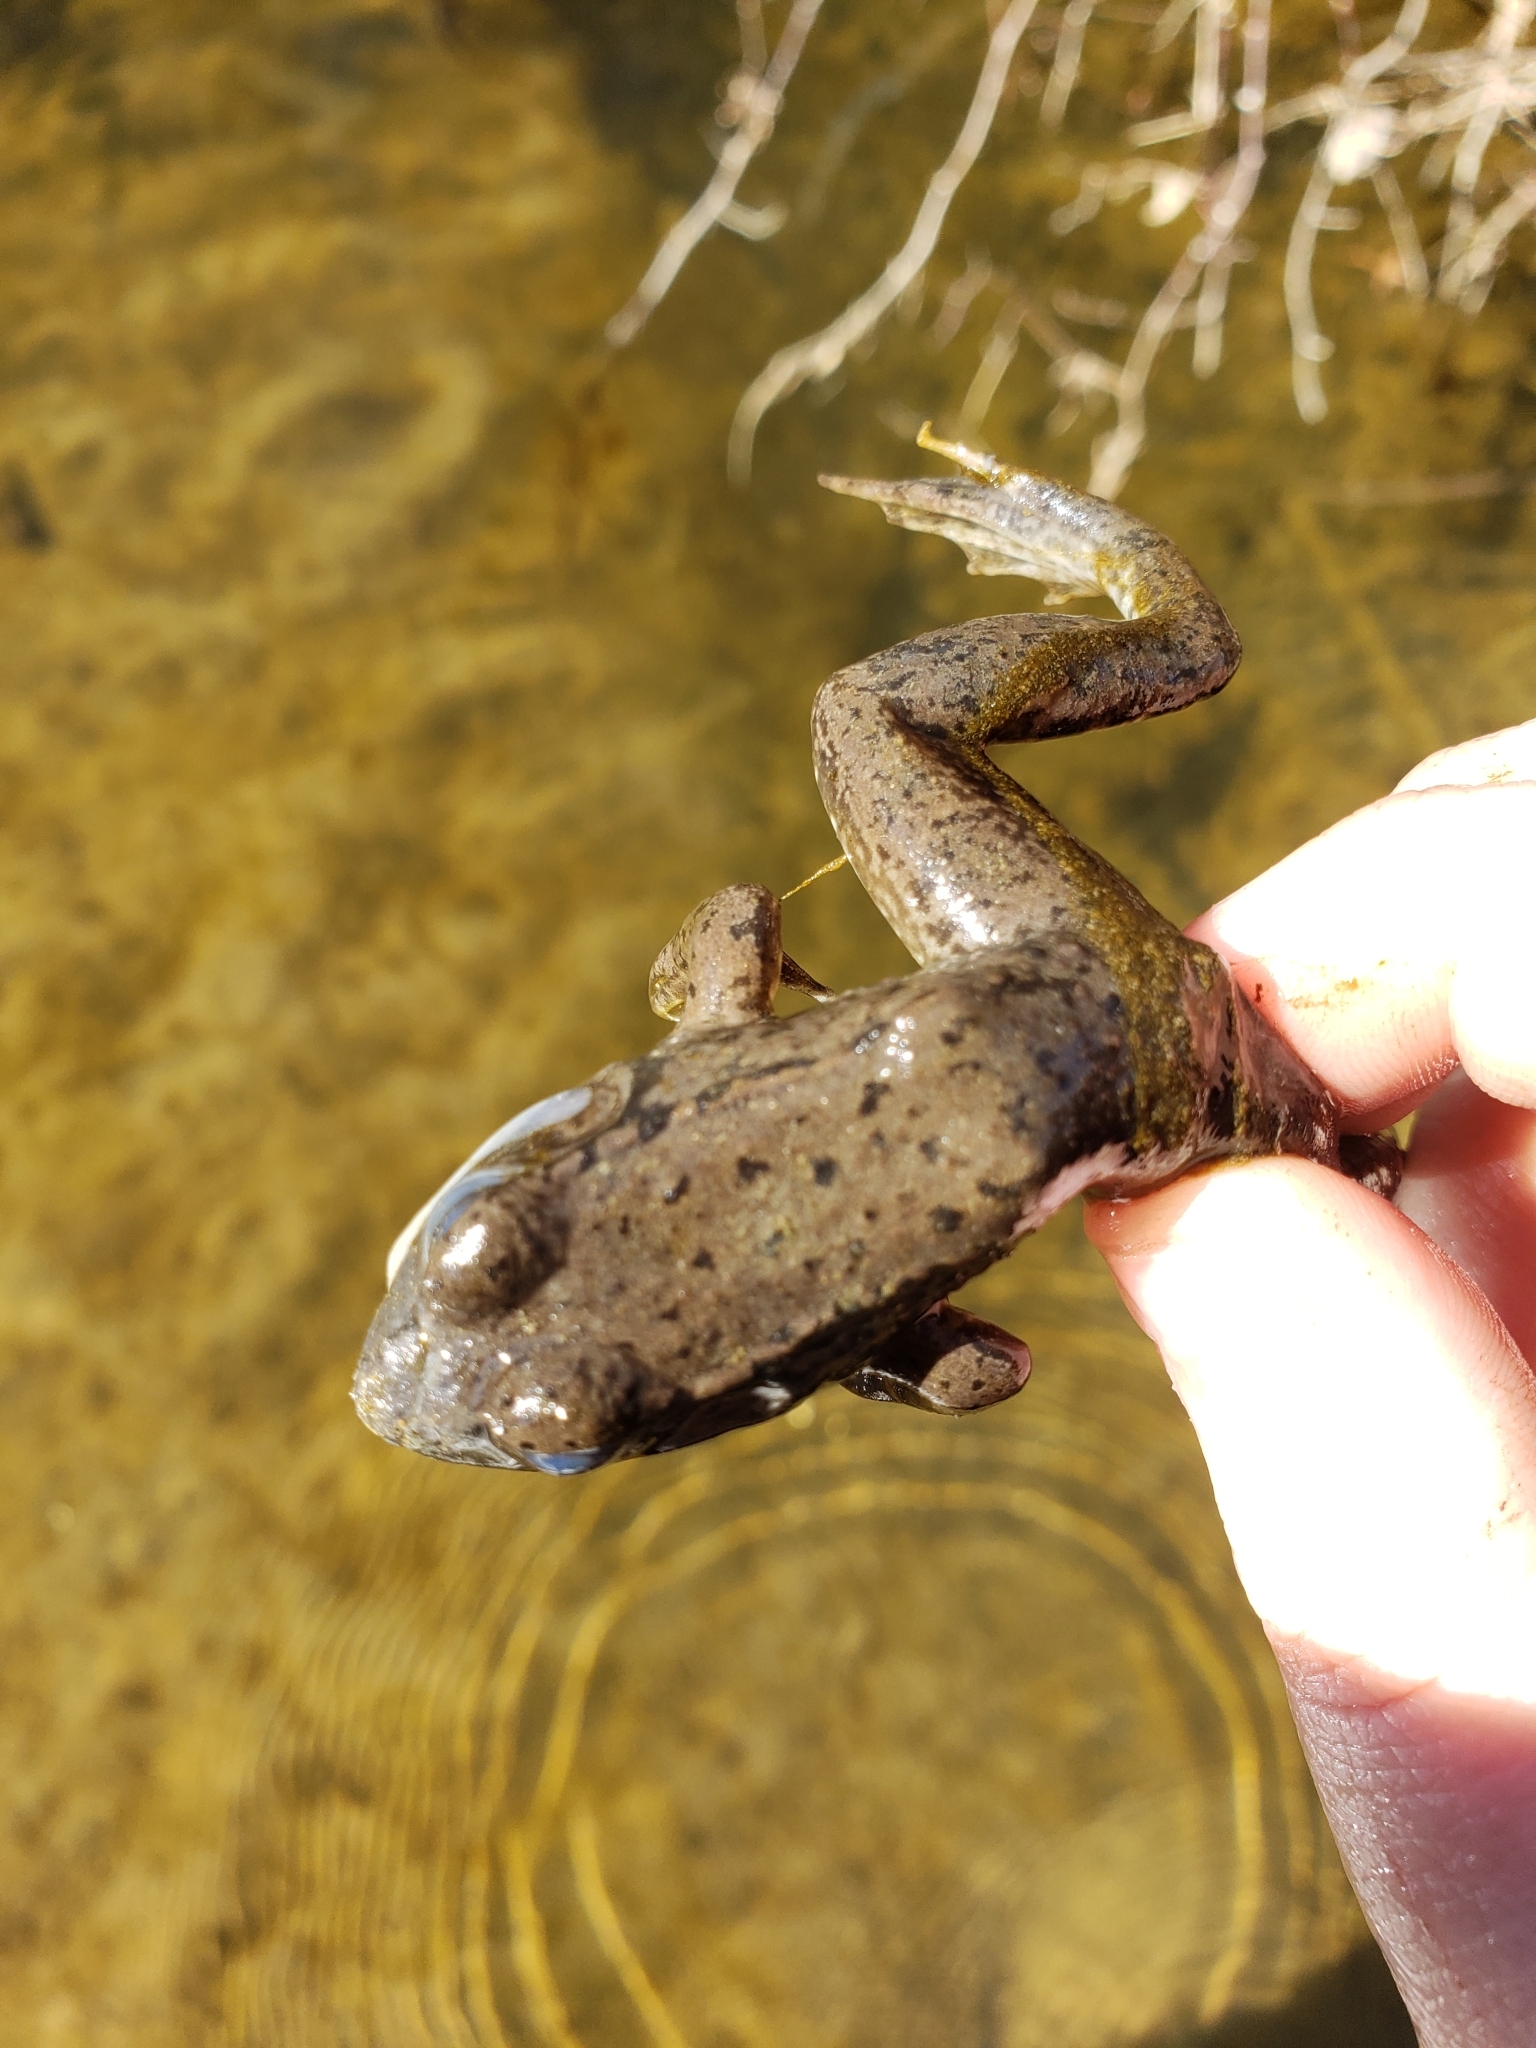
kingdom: Animalia
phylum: Chordata
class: Amphibia
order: Anura
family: Ranidae
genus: Lithobates
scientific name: Lithobates clamitans
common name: Green frog
